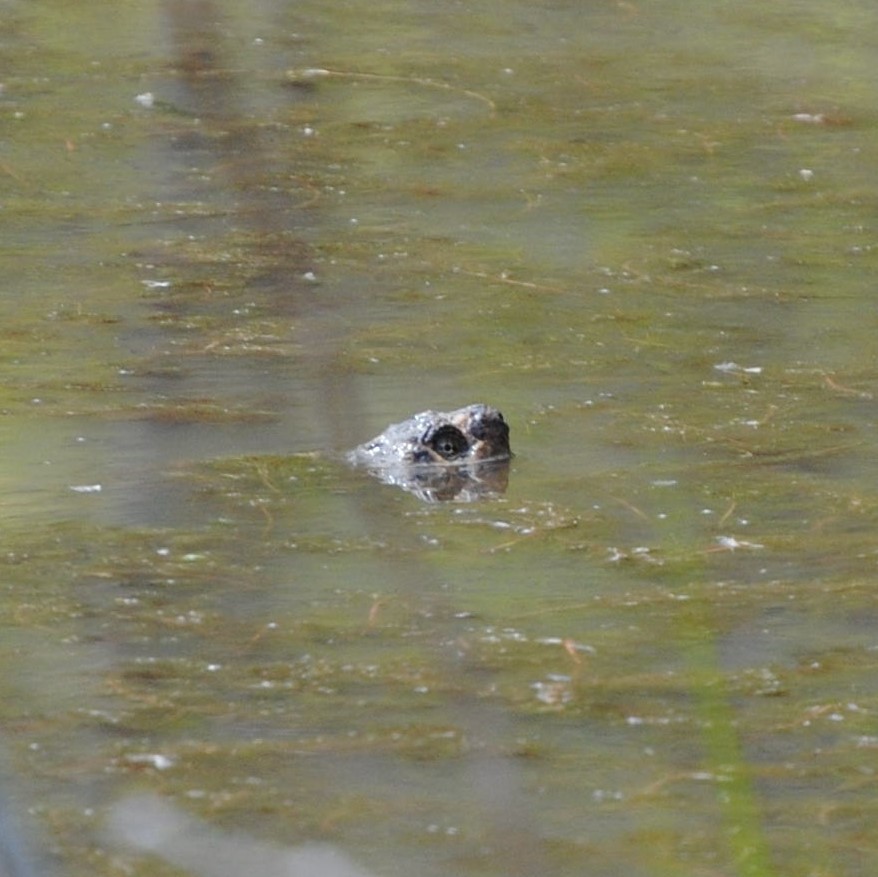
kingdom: Animalia
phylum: Chordata
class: Testudines
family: Chelydridae
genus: Chelydra
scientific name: Chelydra serpentina
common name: Common snapping turtle
